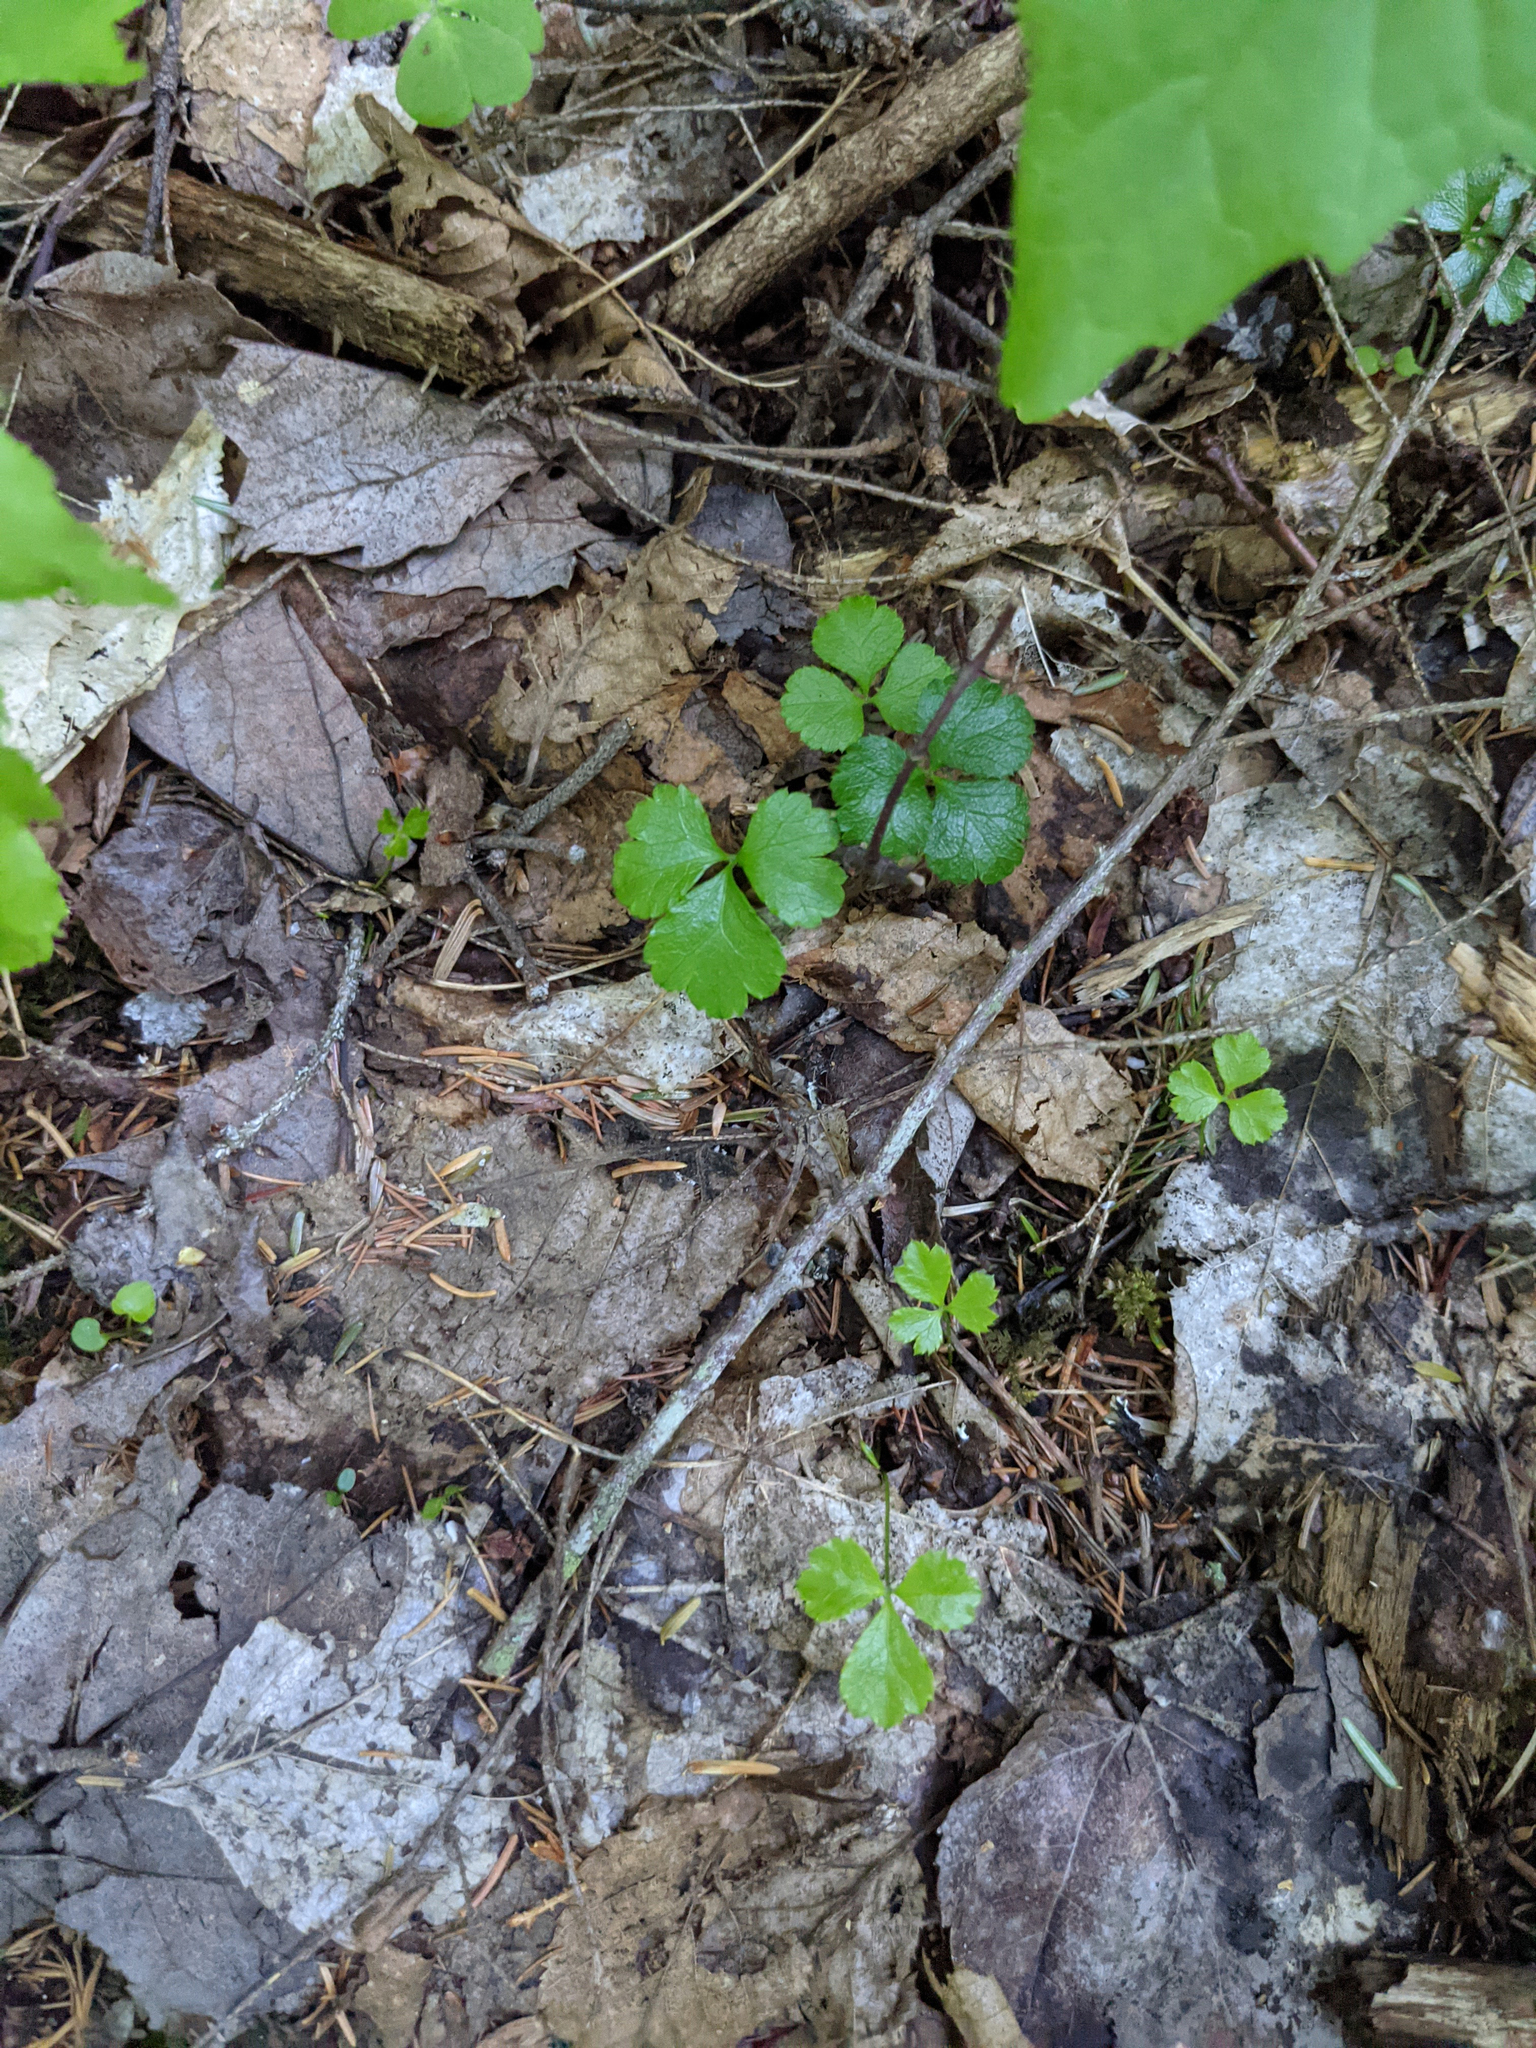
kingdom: Plantae
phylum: Tracheophyta
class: Magnoliopsida
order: Ranunculales
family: Ranunculaceae
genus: Coptis
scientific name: Coptis trifolia
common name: Canker-root
